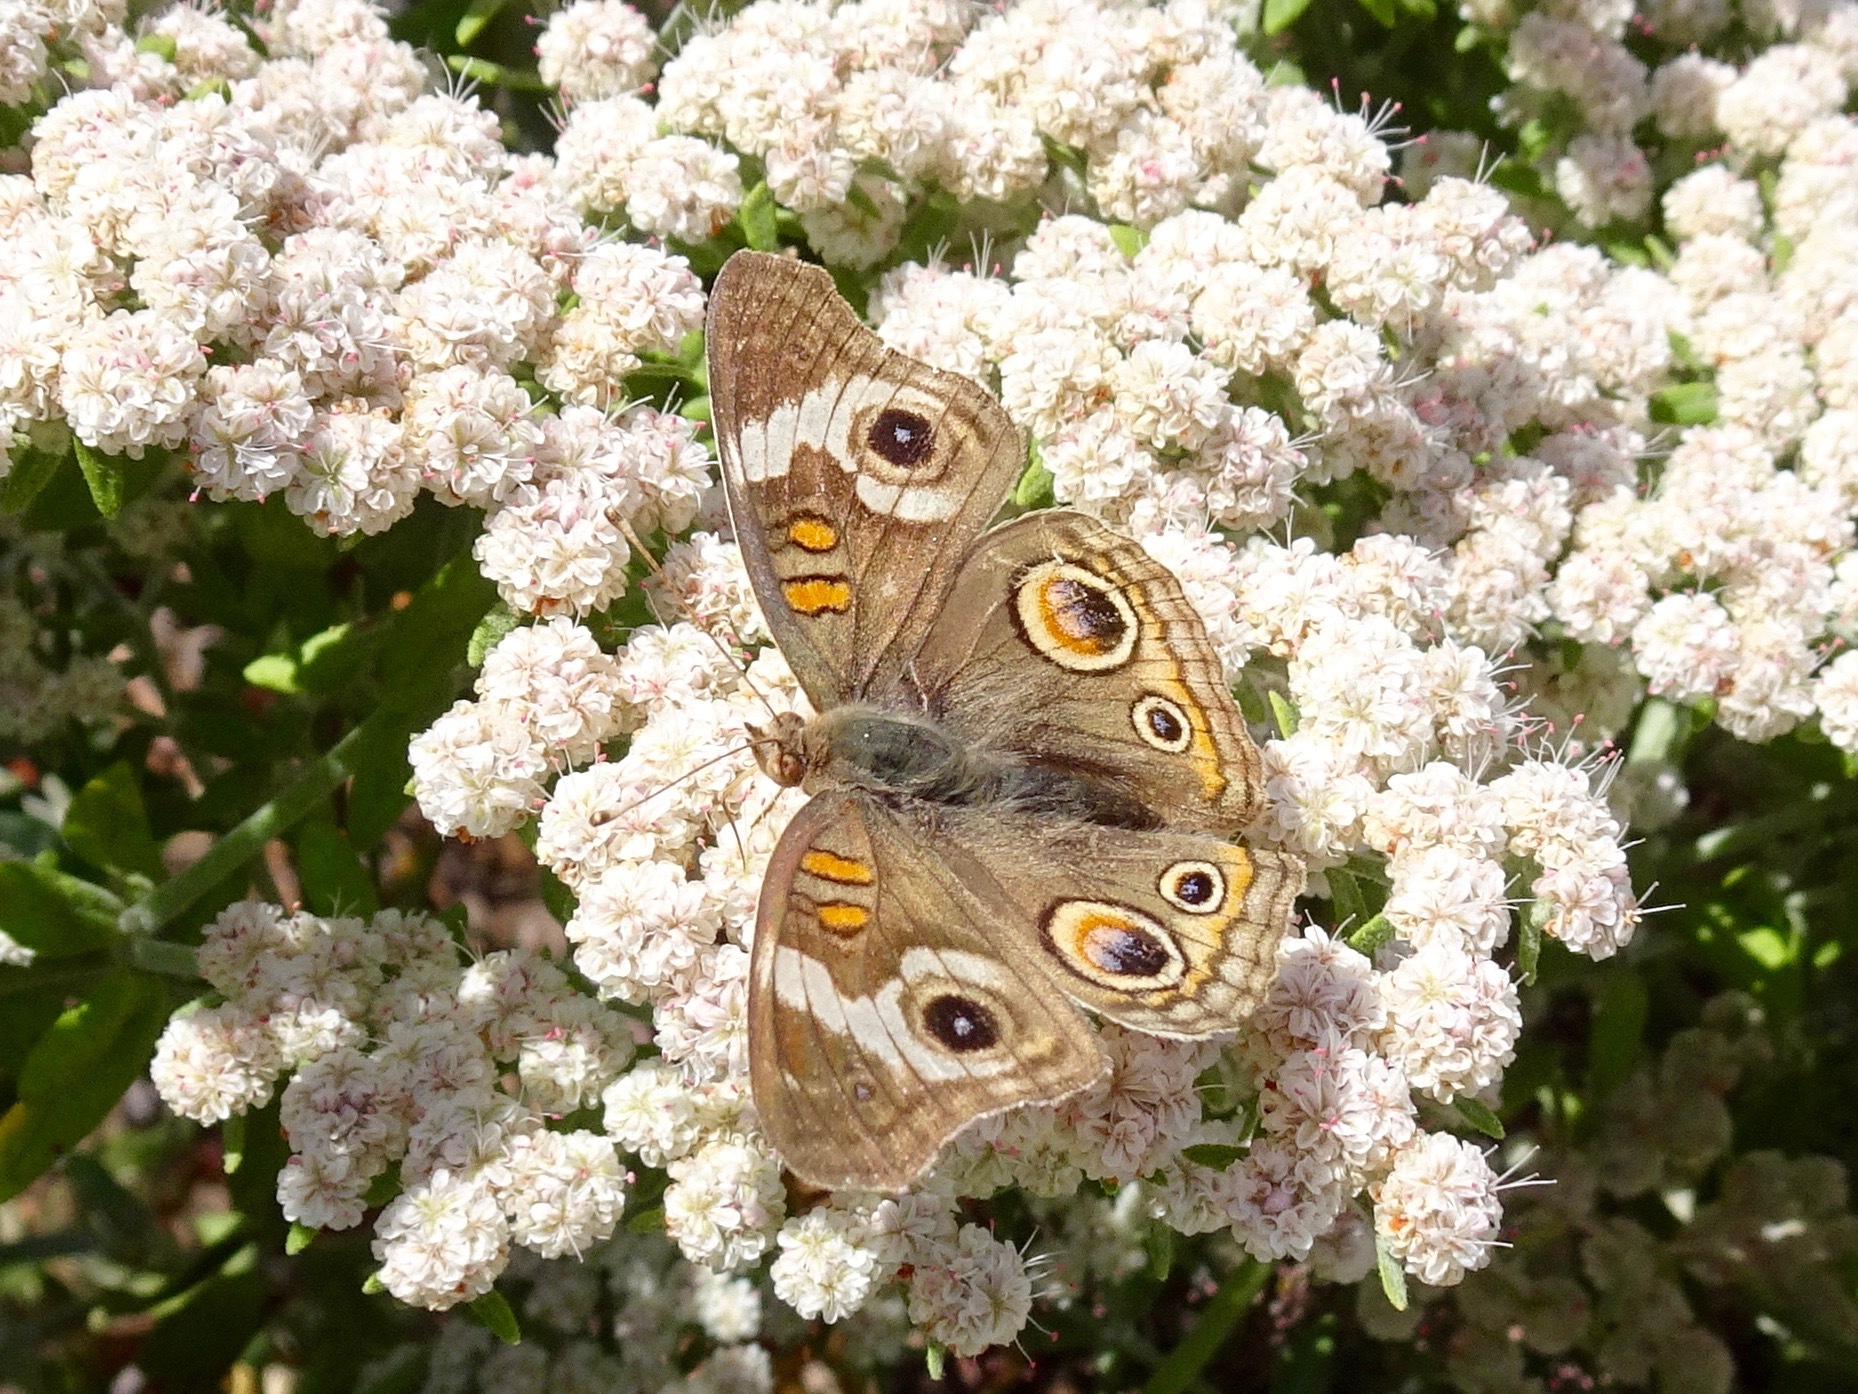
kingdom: Animalia
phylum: Arthropoda
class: Insecta
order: Lepidoptera
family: Nymphalidae
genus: Junonia
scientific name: Junonia grisea
